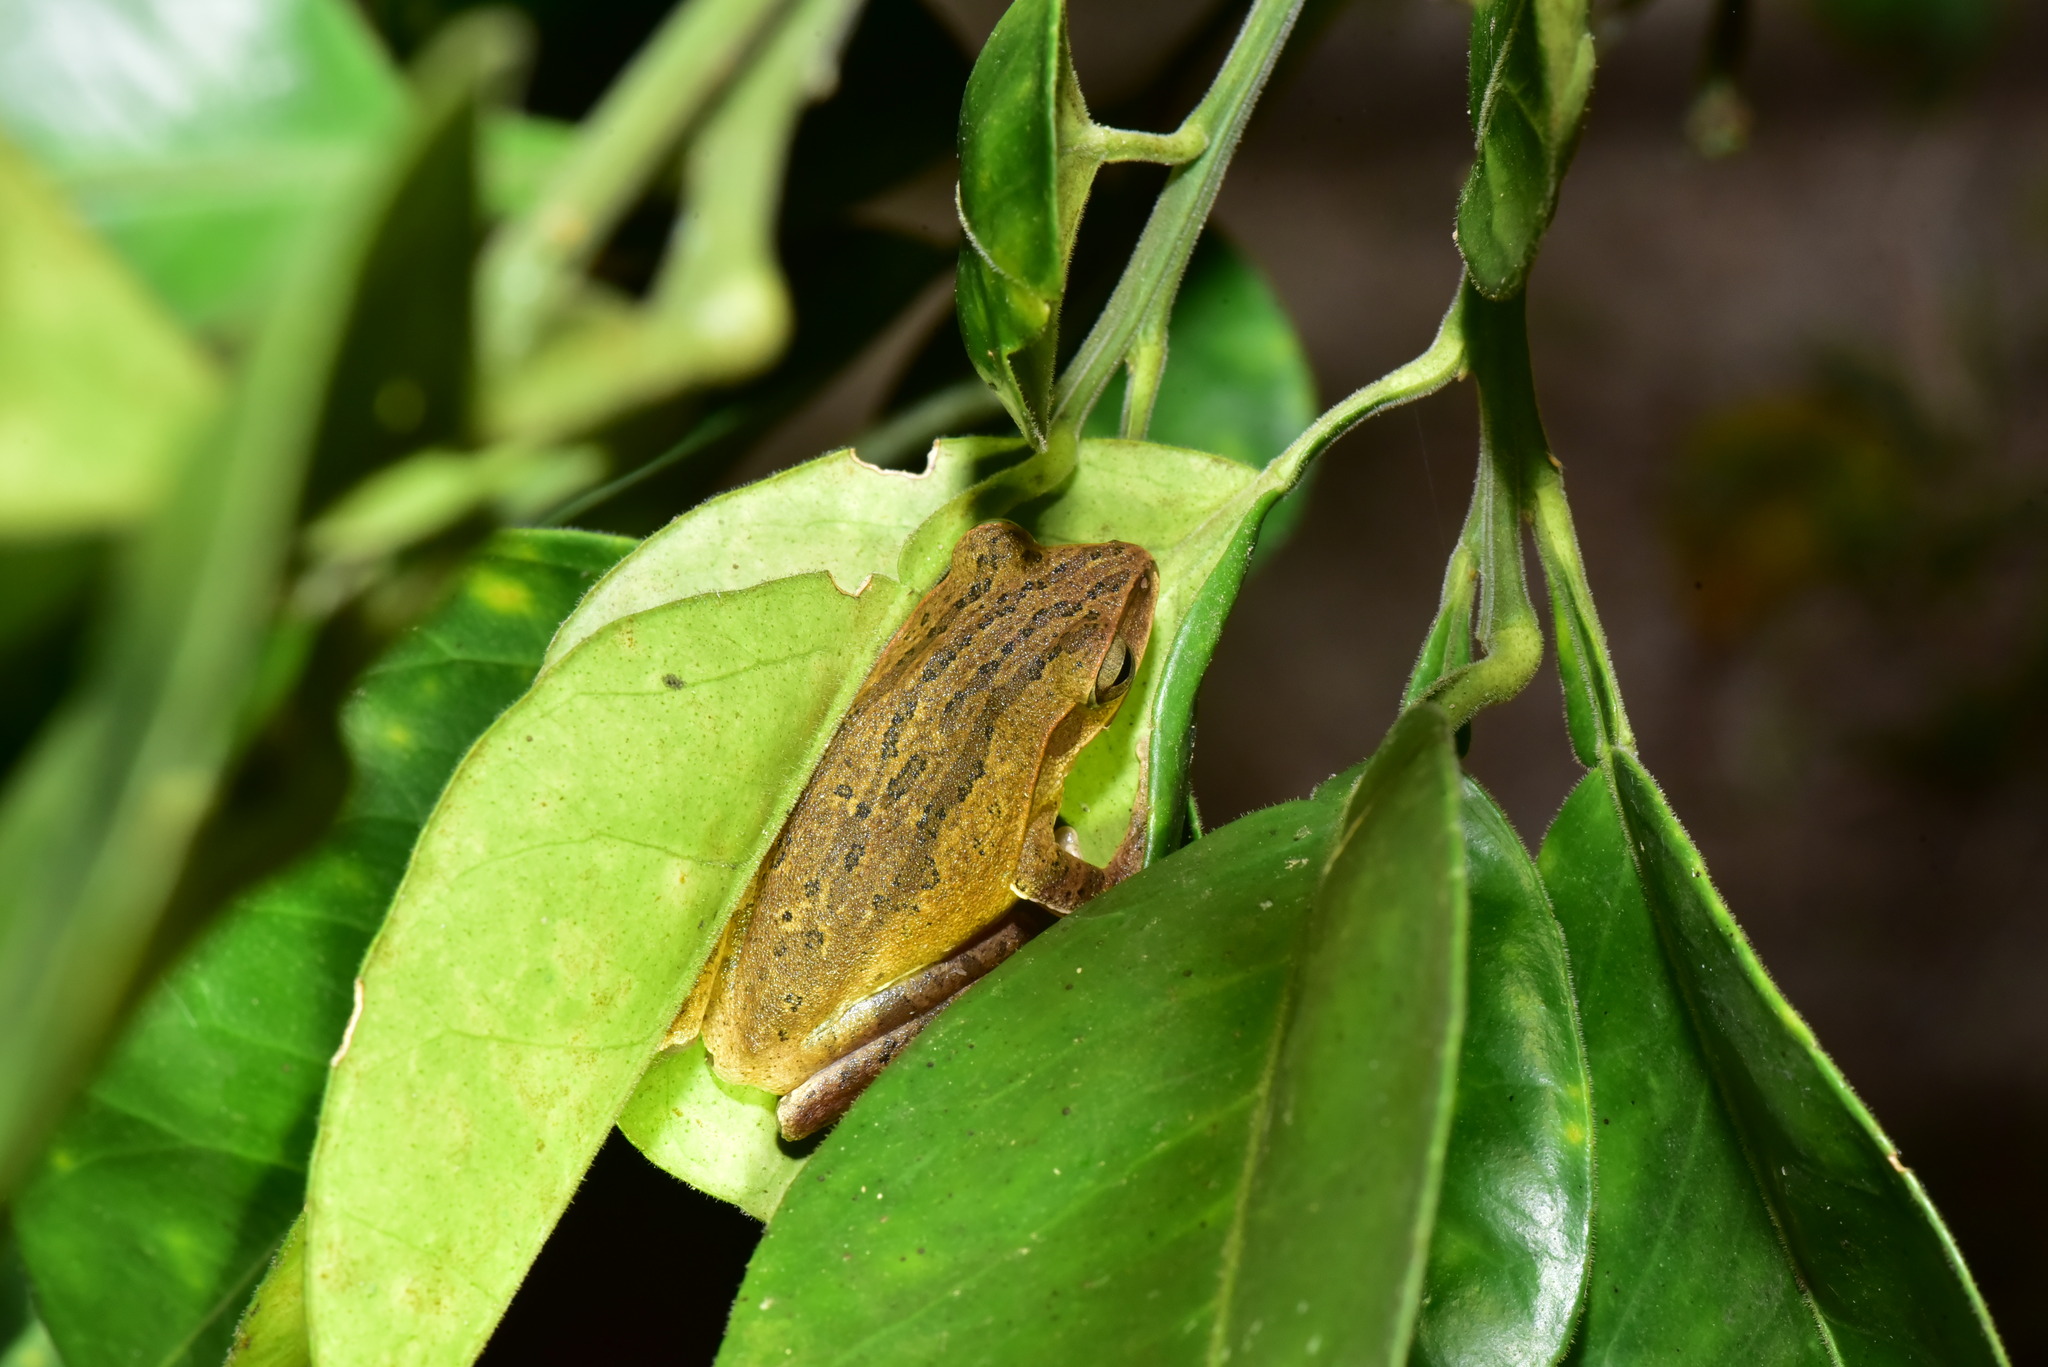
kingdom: Animalia
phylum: Chordata
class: Amphibia
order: Anura
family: Rhacophoridae
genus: Polypedates
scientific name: Polypedates braueri
